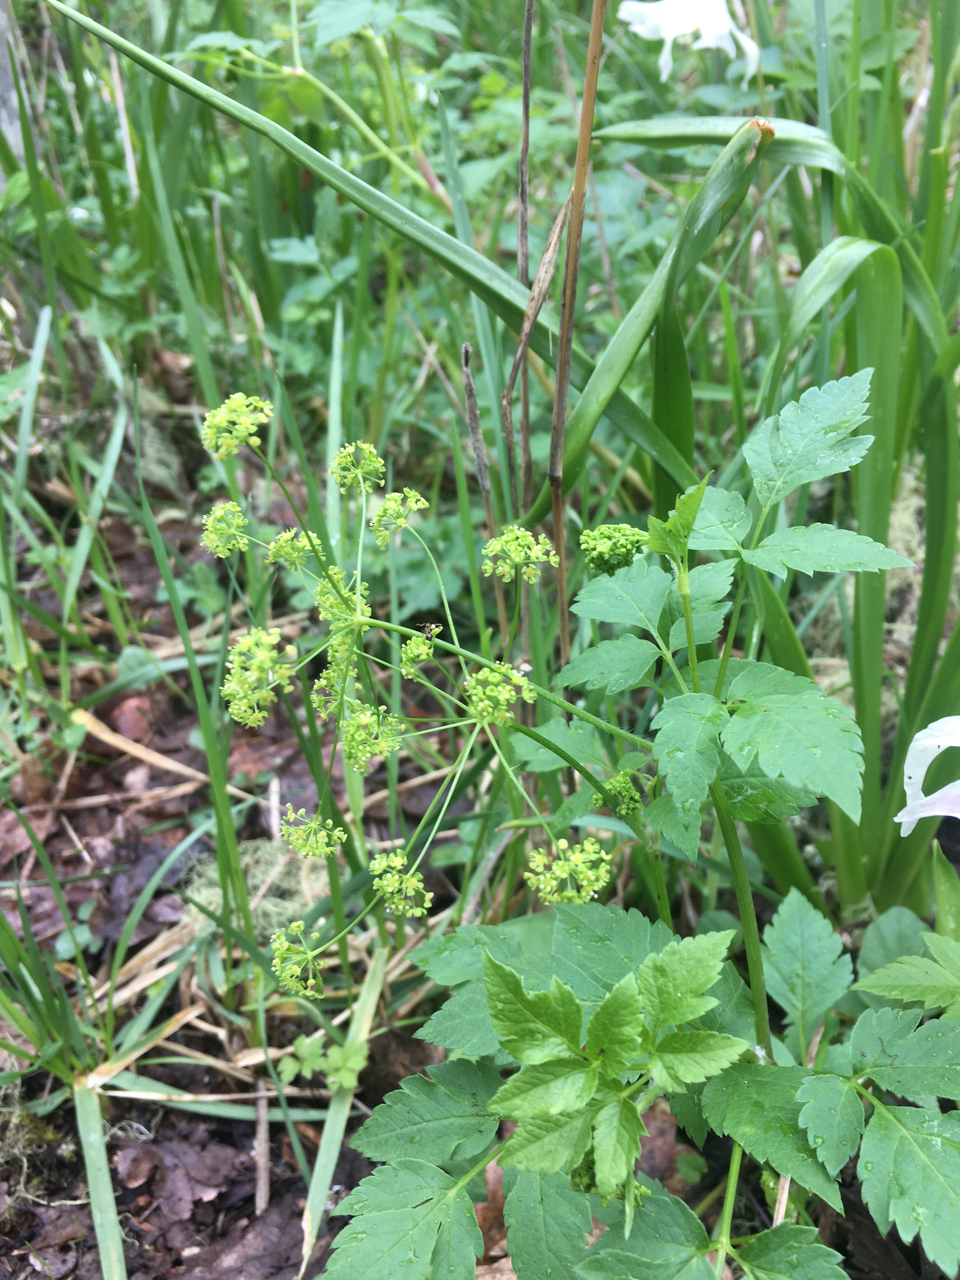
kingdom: Plantae
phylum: Tracheophyta
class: Magnoliopsida
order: Apiales
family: Apiaceae
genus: Osmorhiza
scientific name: Osmorhiza occidentalis
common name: Western sweet cicely
